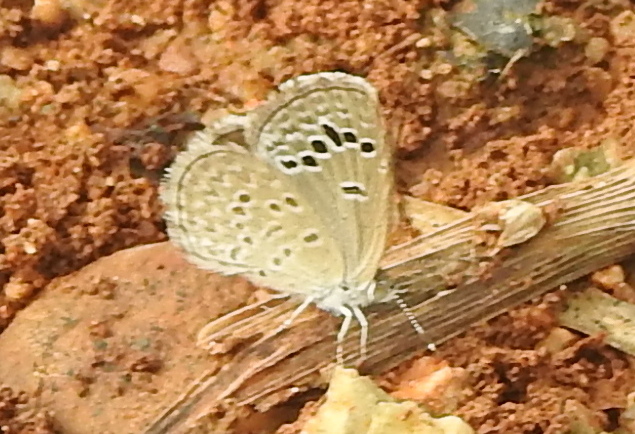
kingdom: Animalia
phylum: Arthropoda
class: Insecta
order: Lepidoptera
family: Lycaenidae
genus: Zizina
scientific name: Zizina otis
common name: Lesser grass blue
